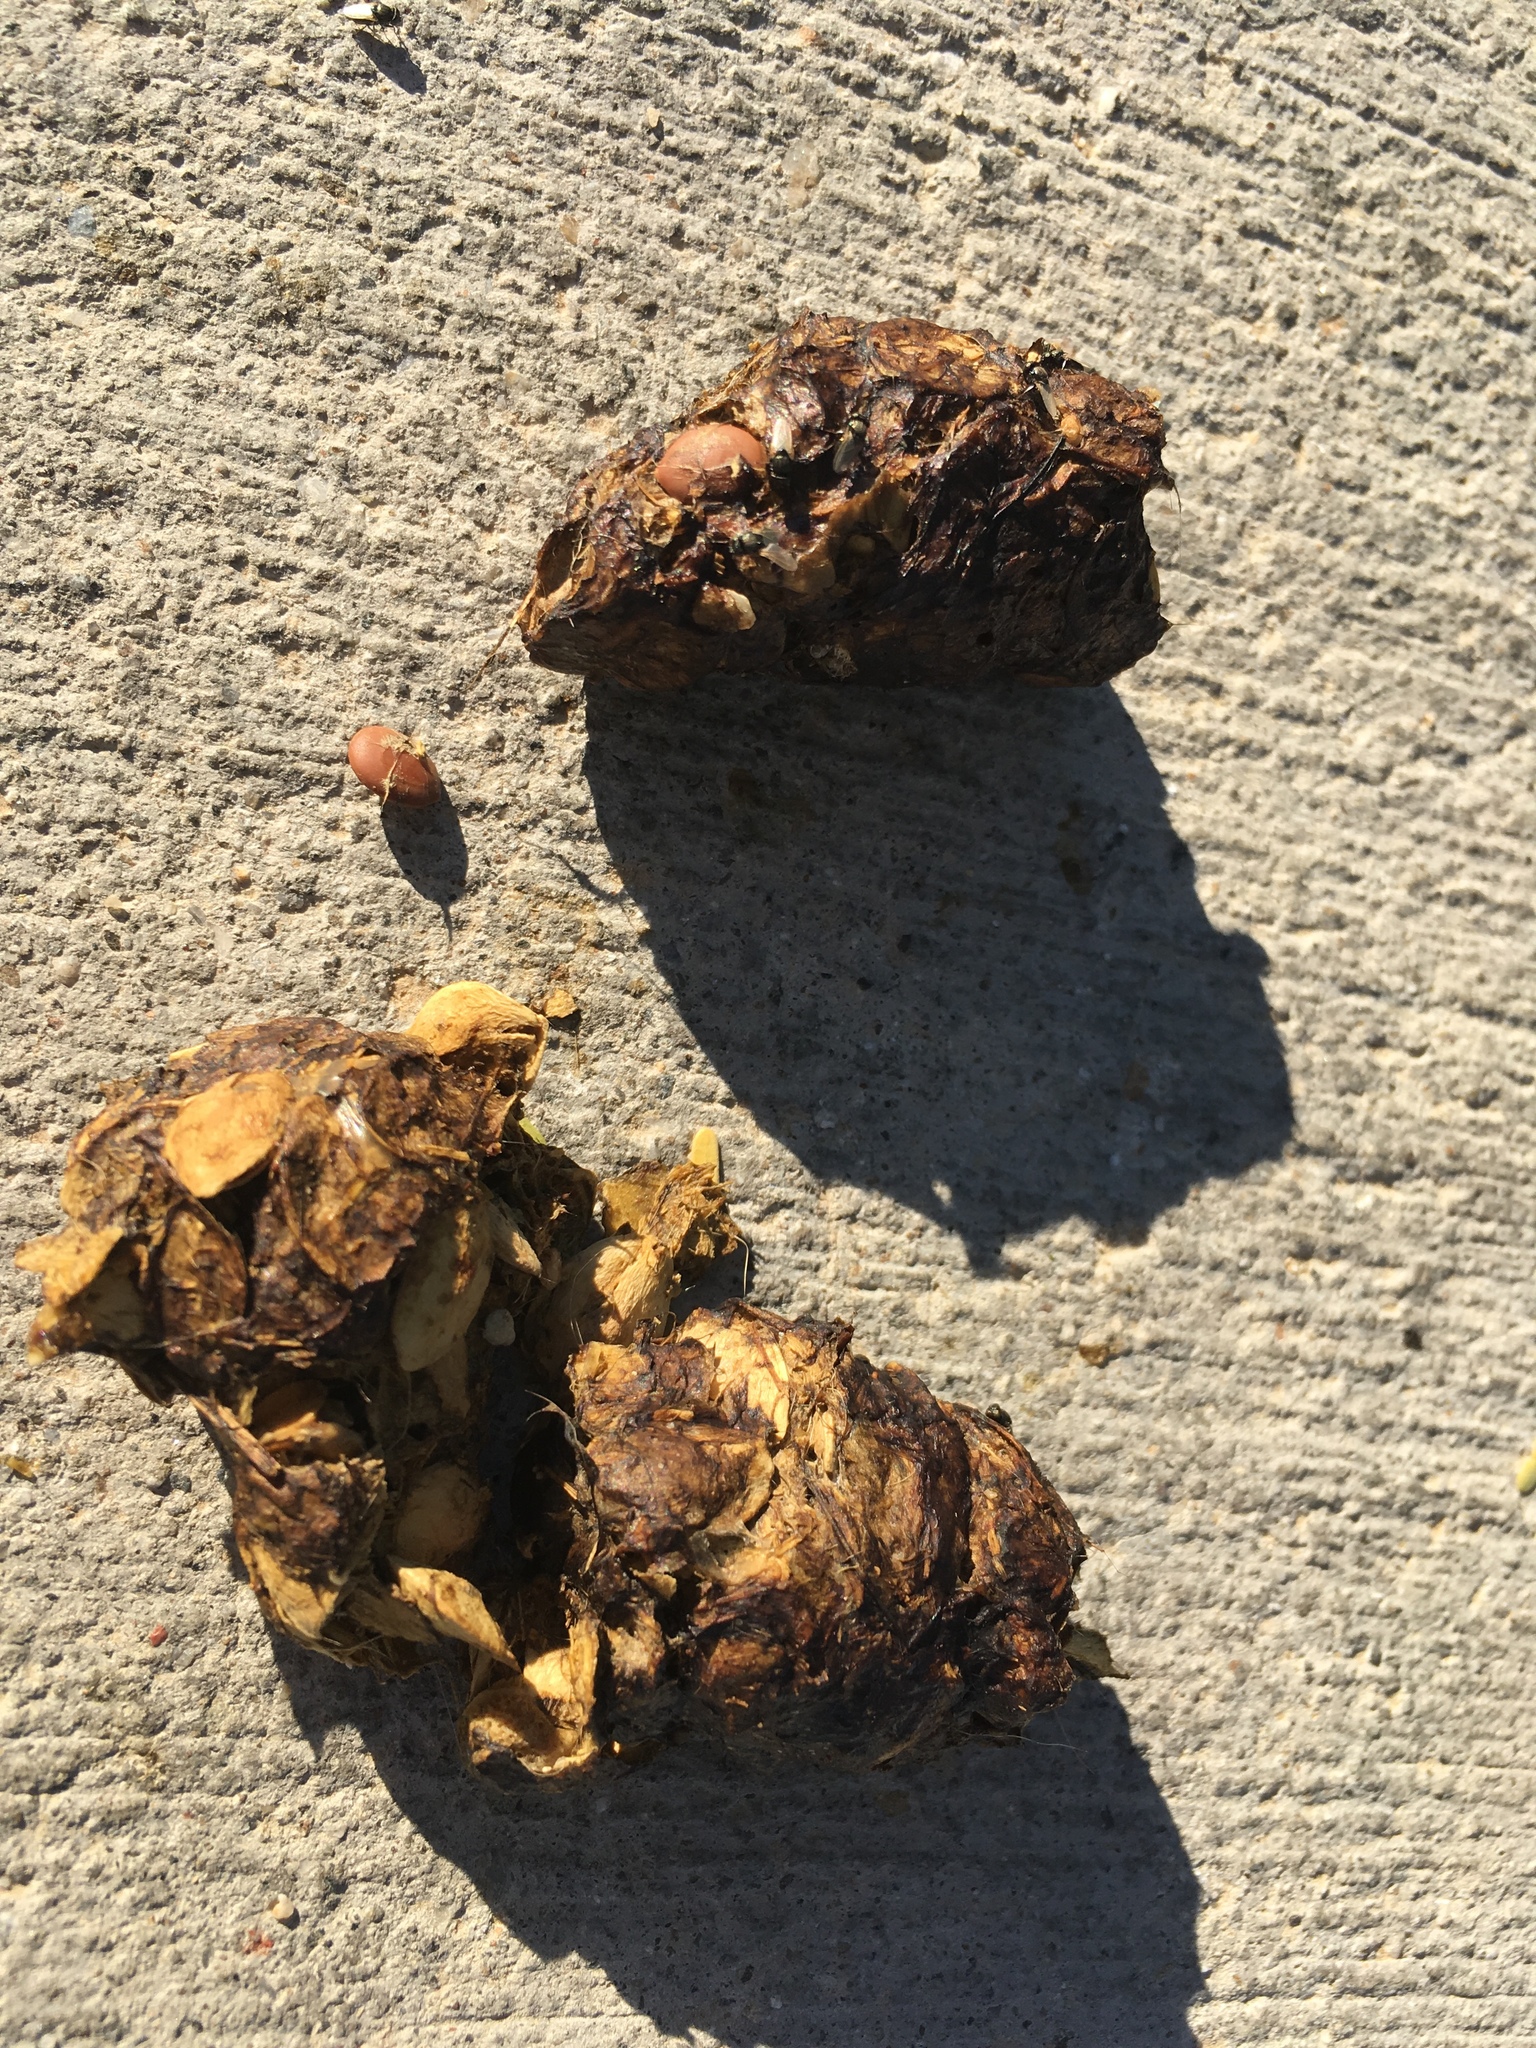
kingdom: Animalia
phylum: Chordata
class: Mammalia
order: Carnivora
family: Canidae
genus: Canis
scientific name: Canis latrans
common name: Coyote
